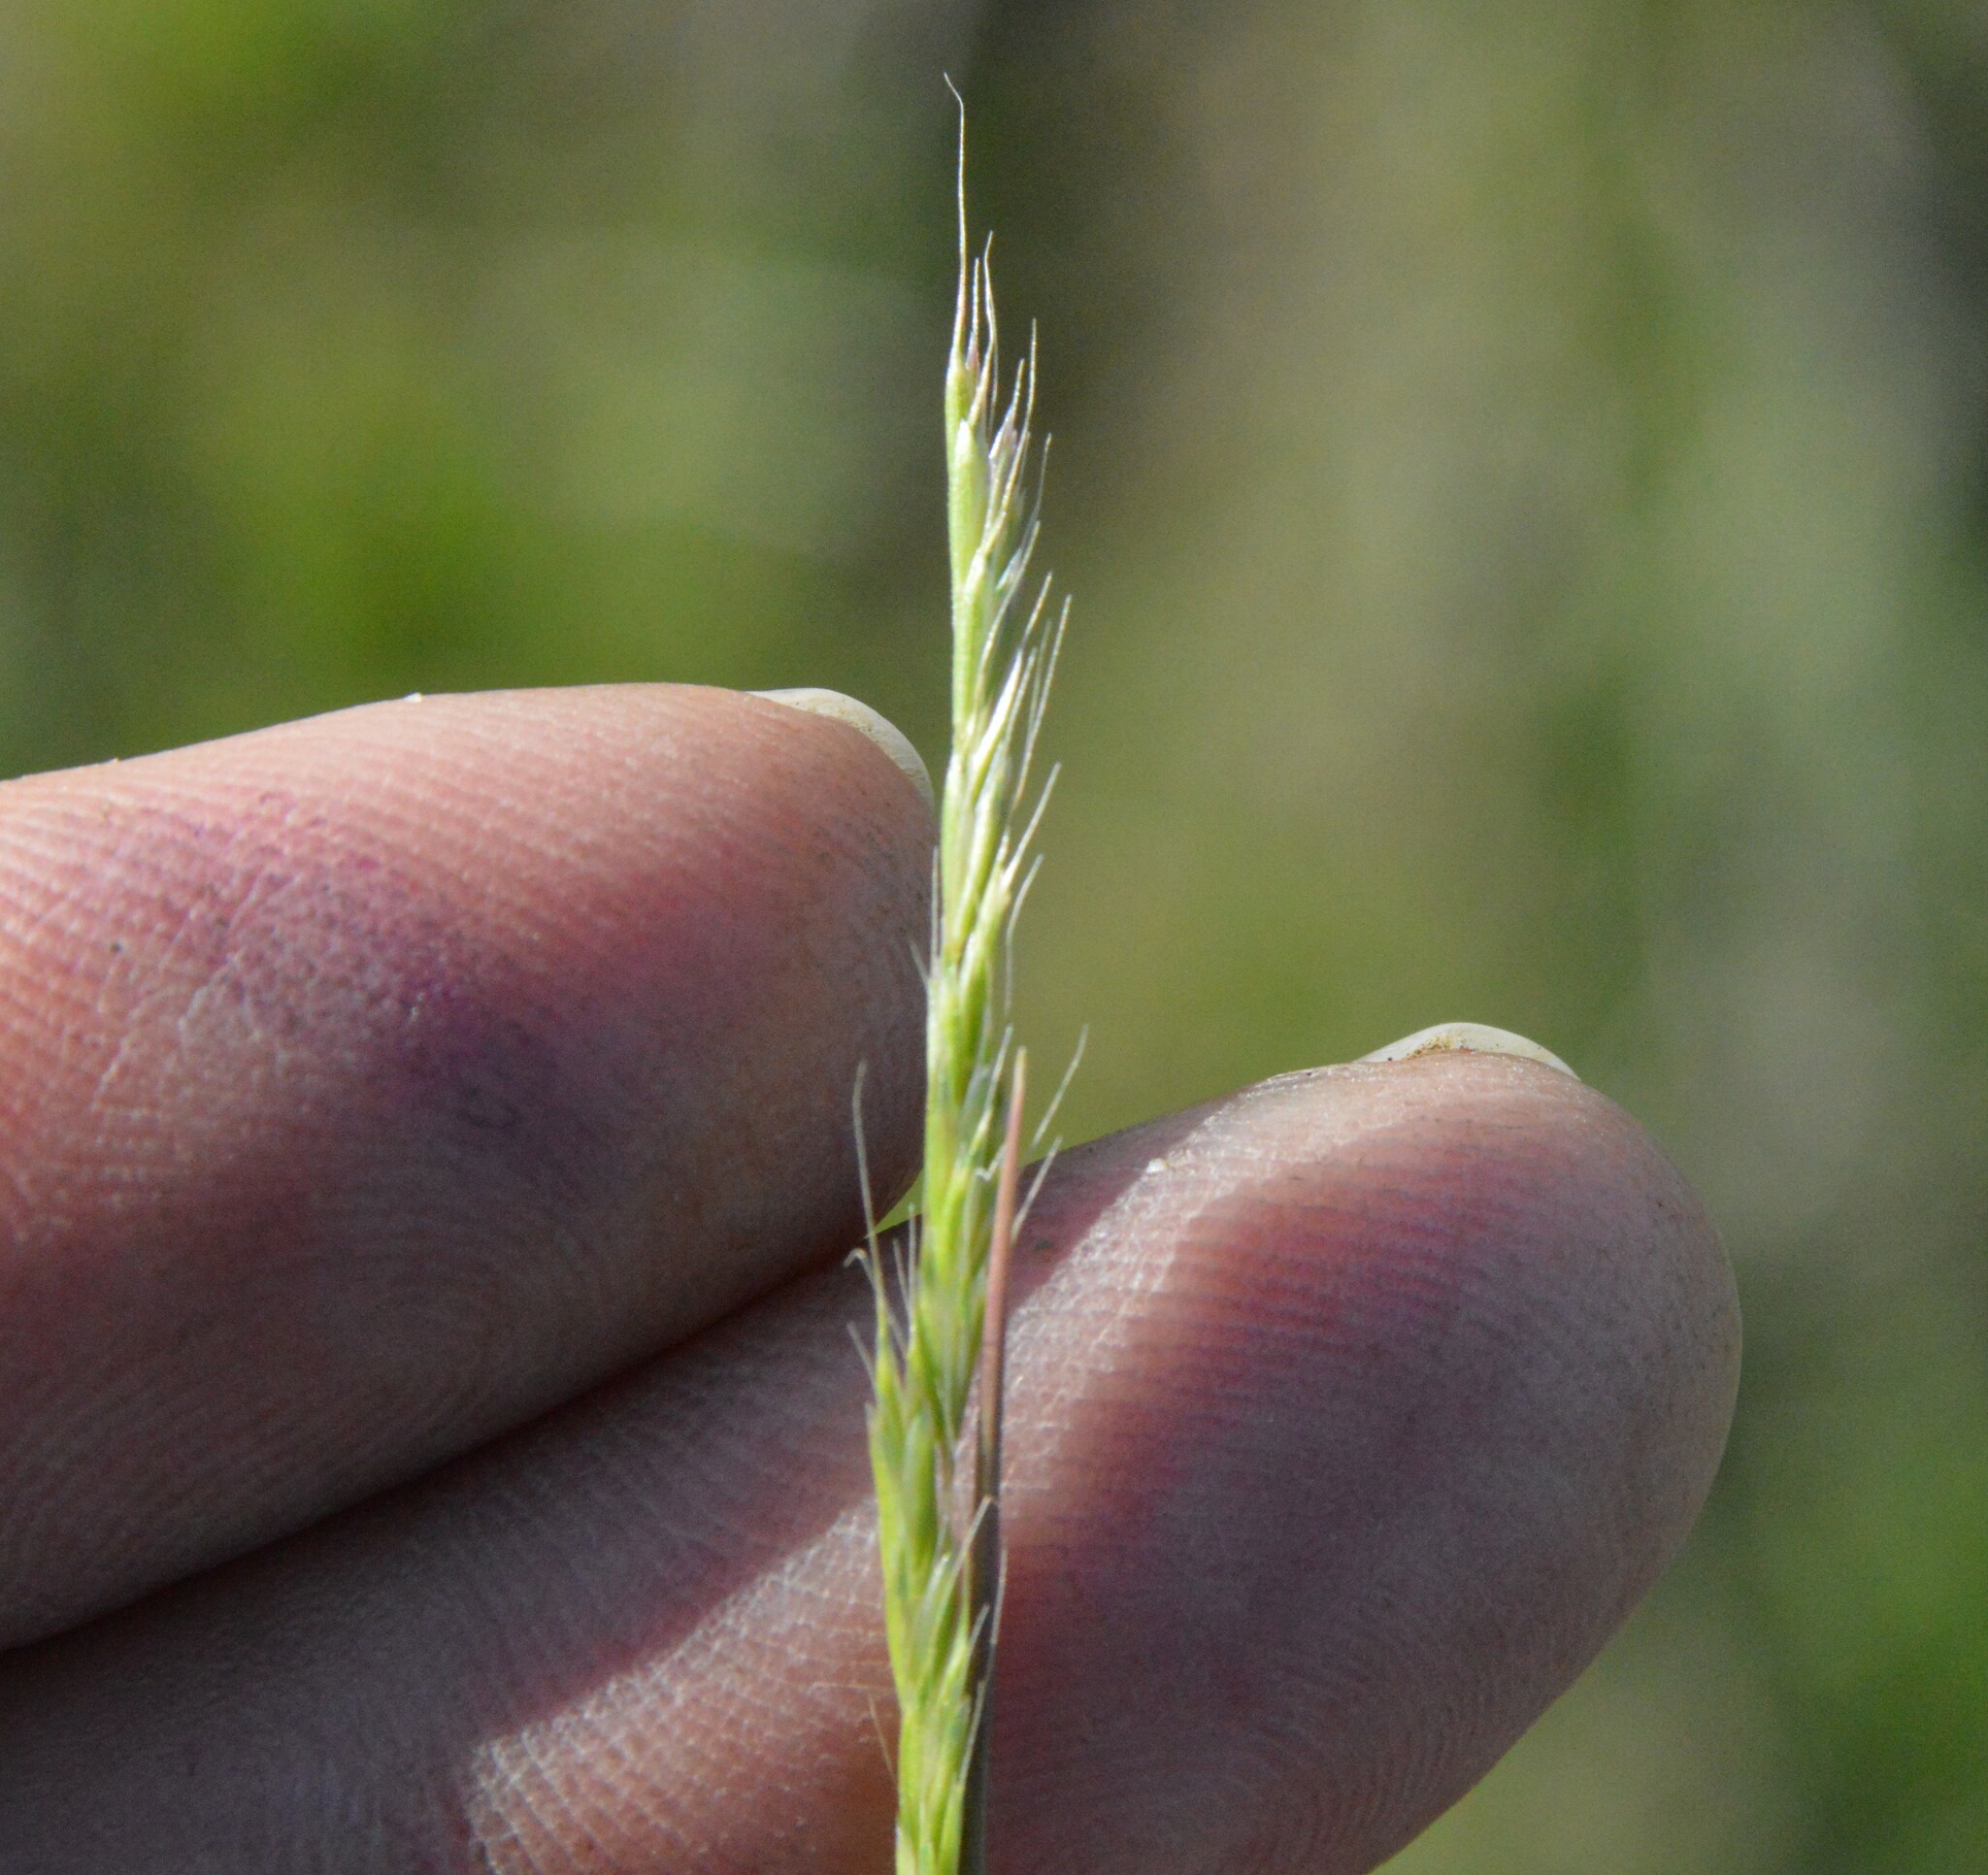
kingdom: Plantae
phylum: Tracheophyta
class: Liliopsida
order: Poales
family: Poaceae
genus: Trisetum
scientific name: Trisetum interruptum
